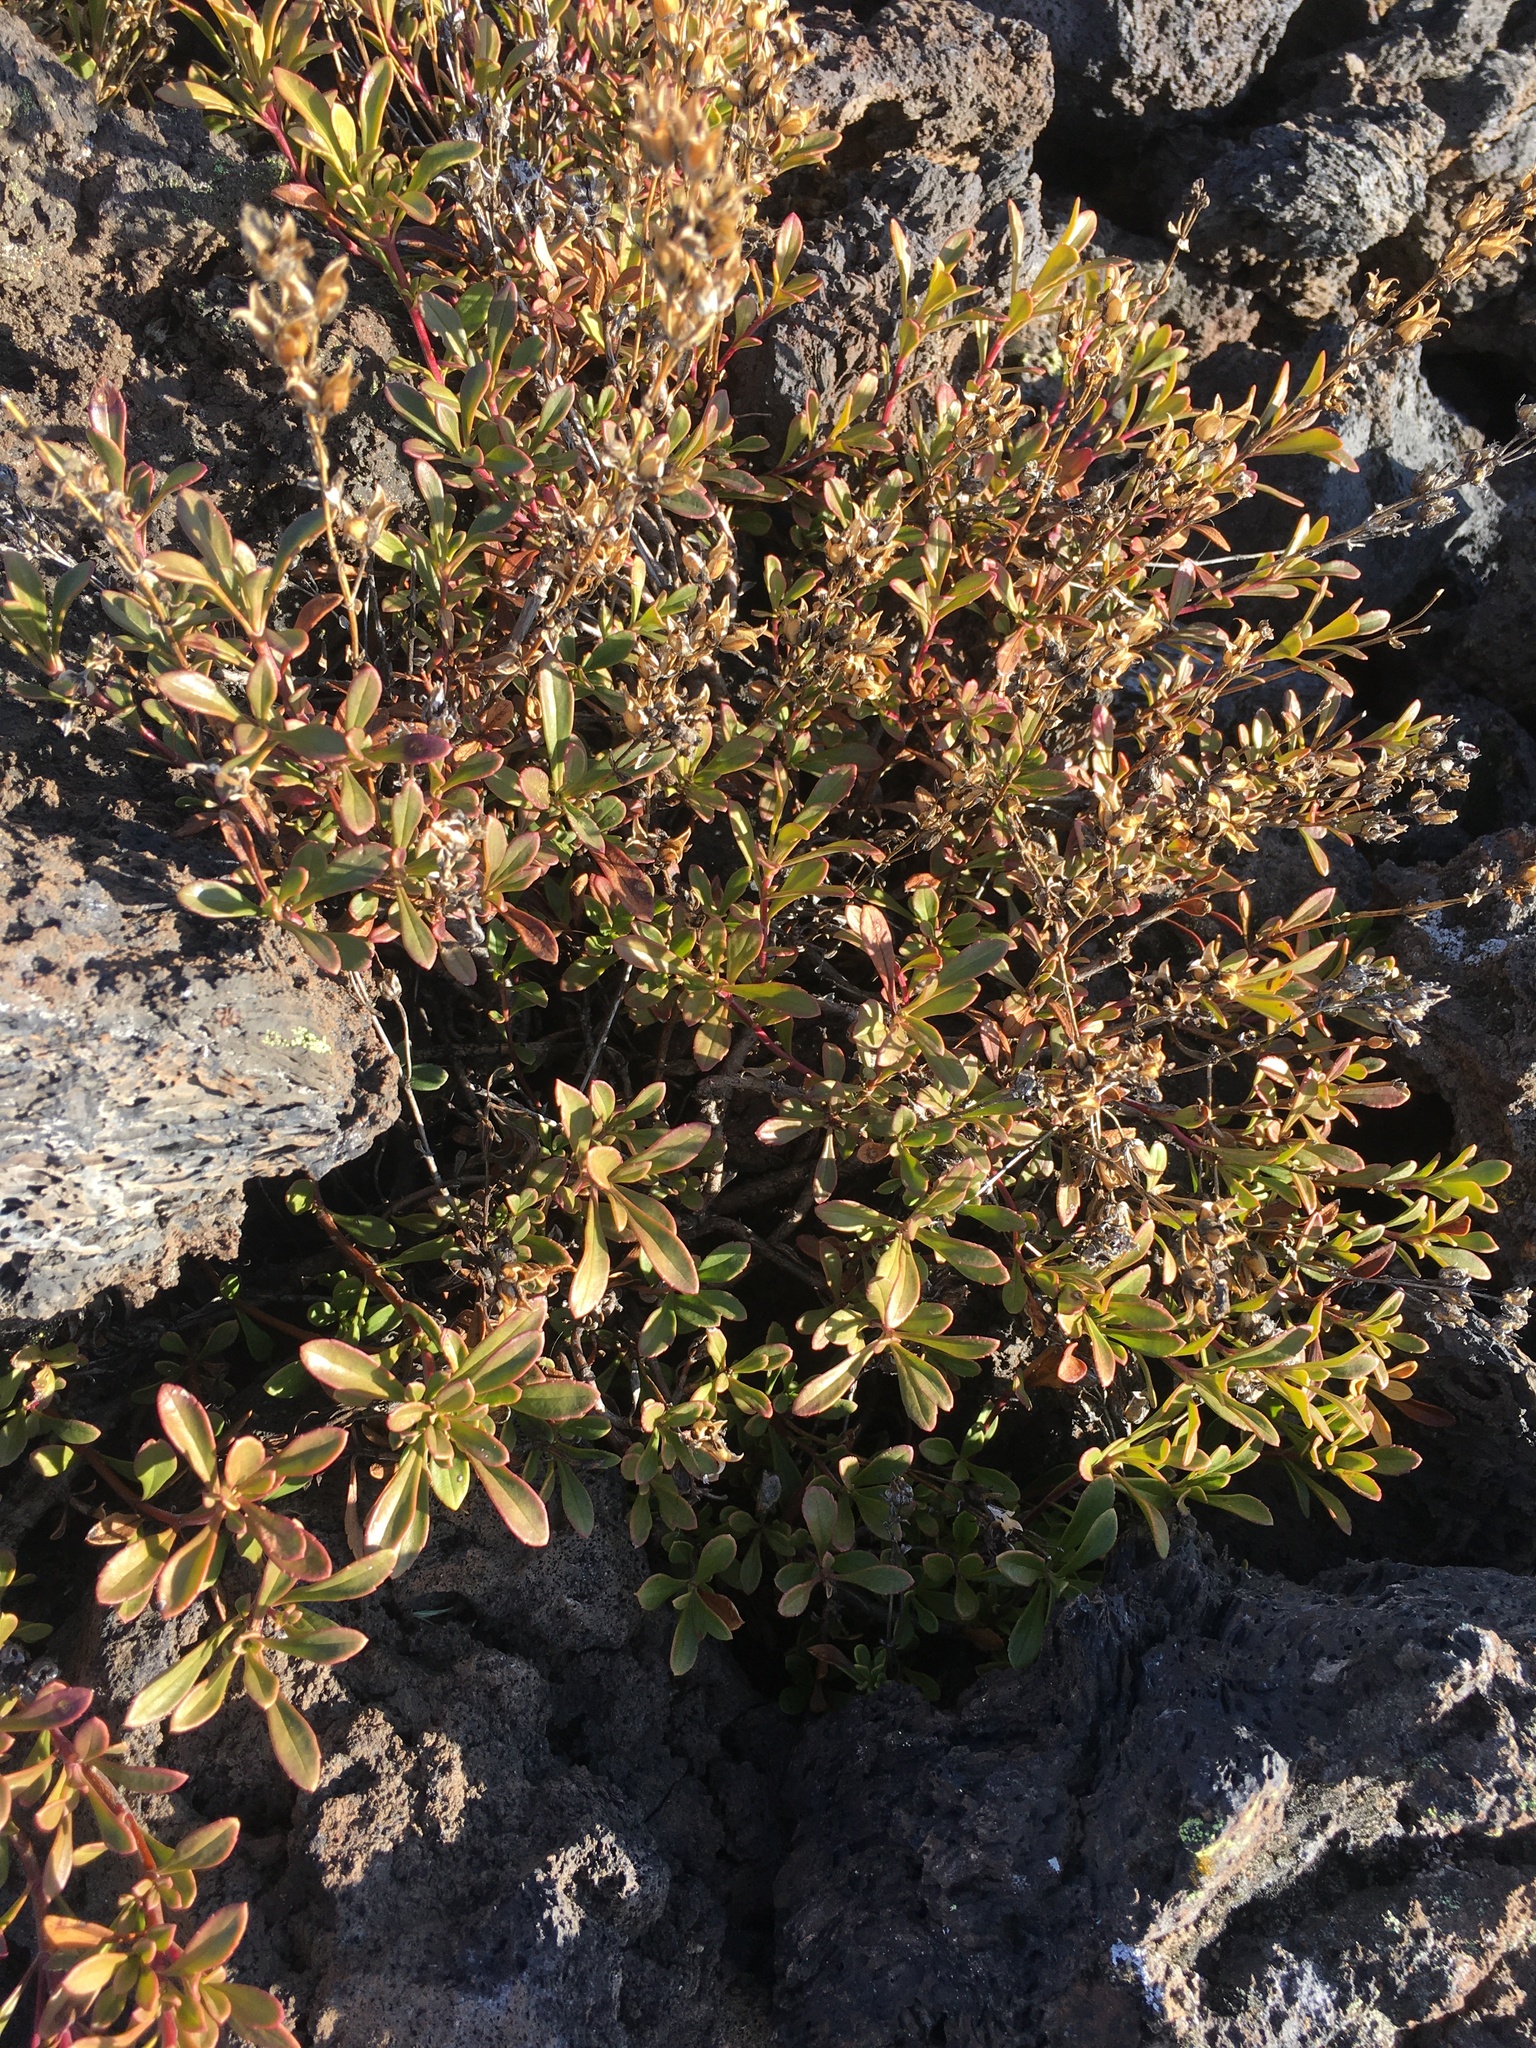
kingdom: Plantae
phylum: Tracheophyta
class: Magnoliopsida
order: Lamiales
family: Plantaginaceae
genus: Penstemon
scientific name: Penstemon davidsonii
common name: Davidson's penstemon
